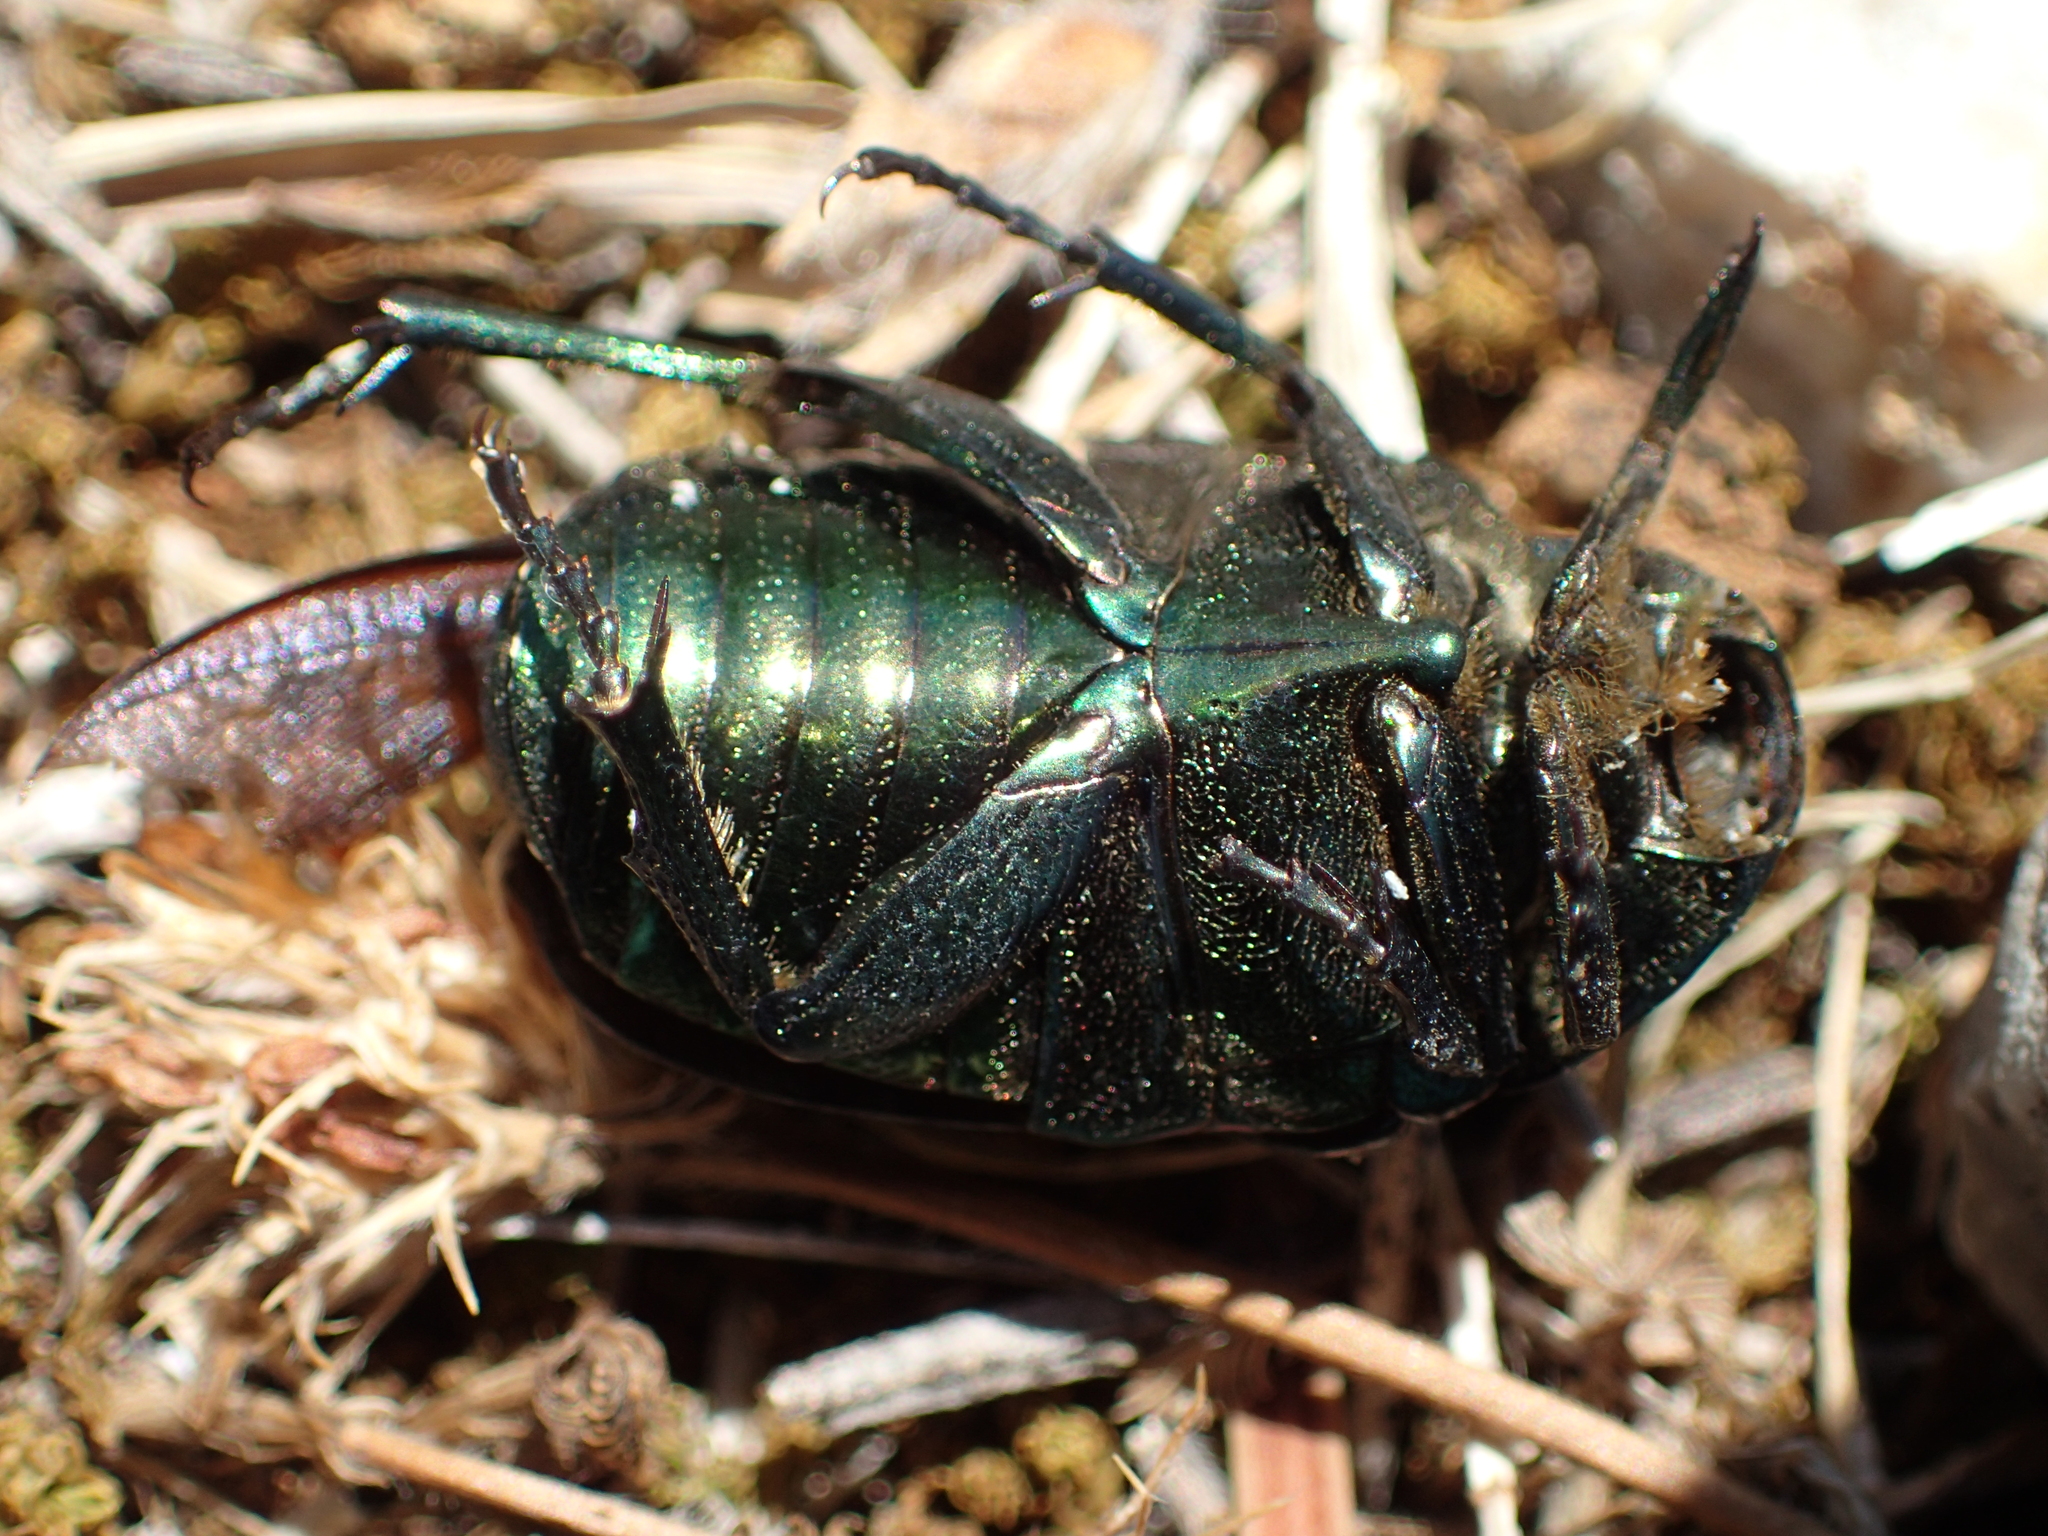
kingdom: Animalia
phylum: Arthropoda
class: Insecta
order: Coleoptera
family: Scarabaeidae
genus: Cetonia
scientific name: Cetonia aurata
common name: Rose chafer
